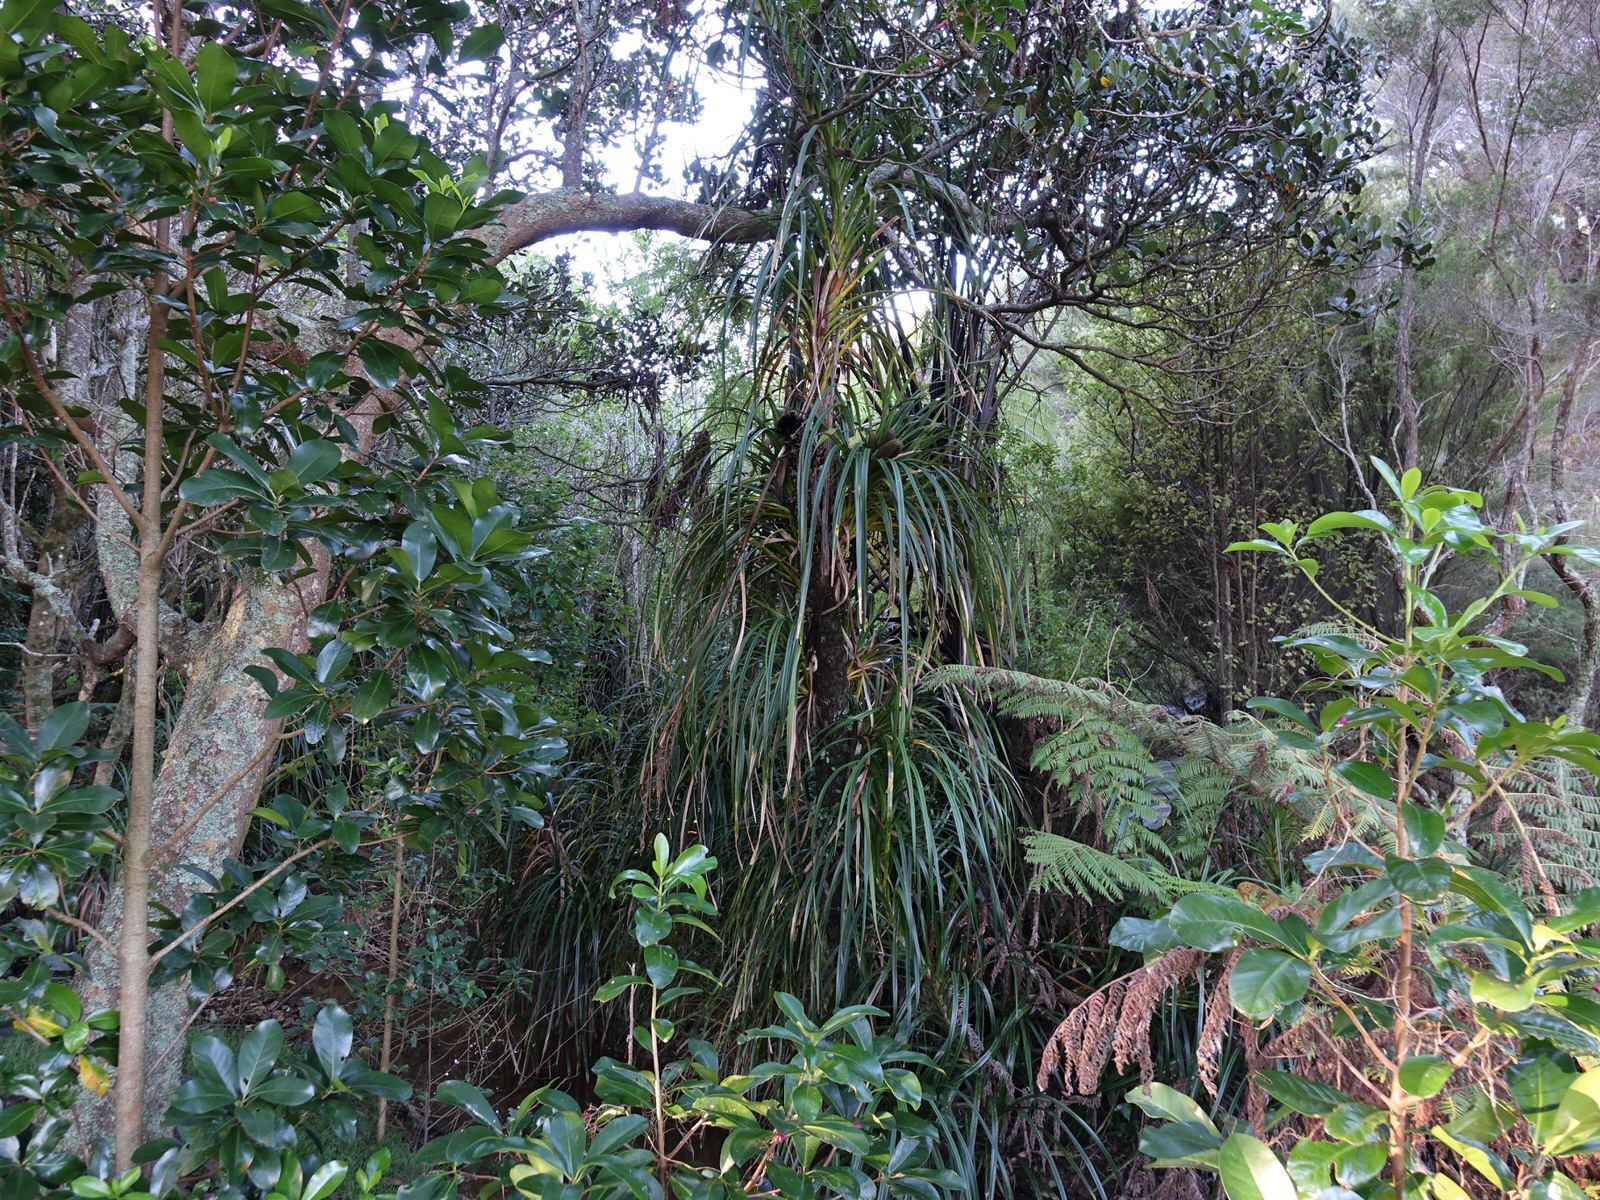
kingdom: Plantae
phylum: Tracheophyta
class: Liliopsida
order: Pandanales
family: Pandanaceae
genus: Freycinetia
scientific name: Freycinetia banksii
